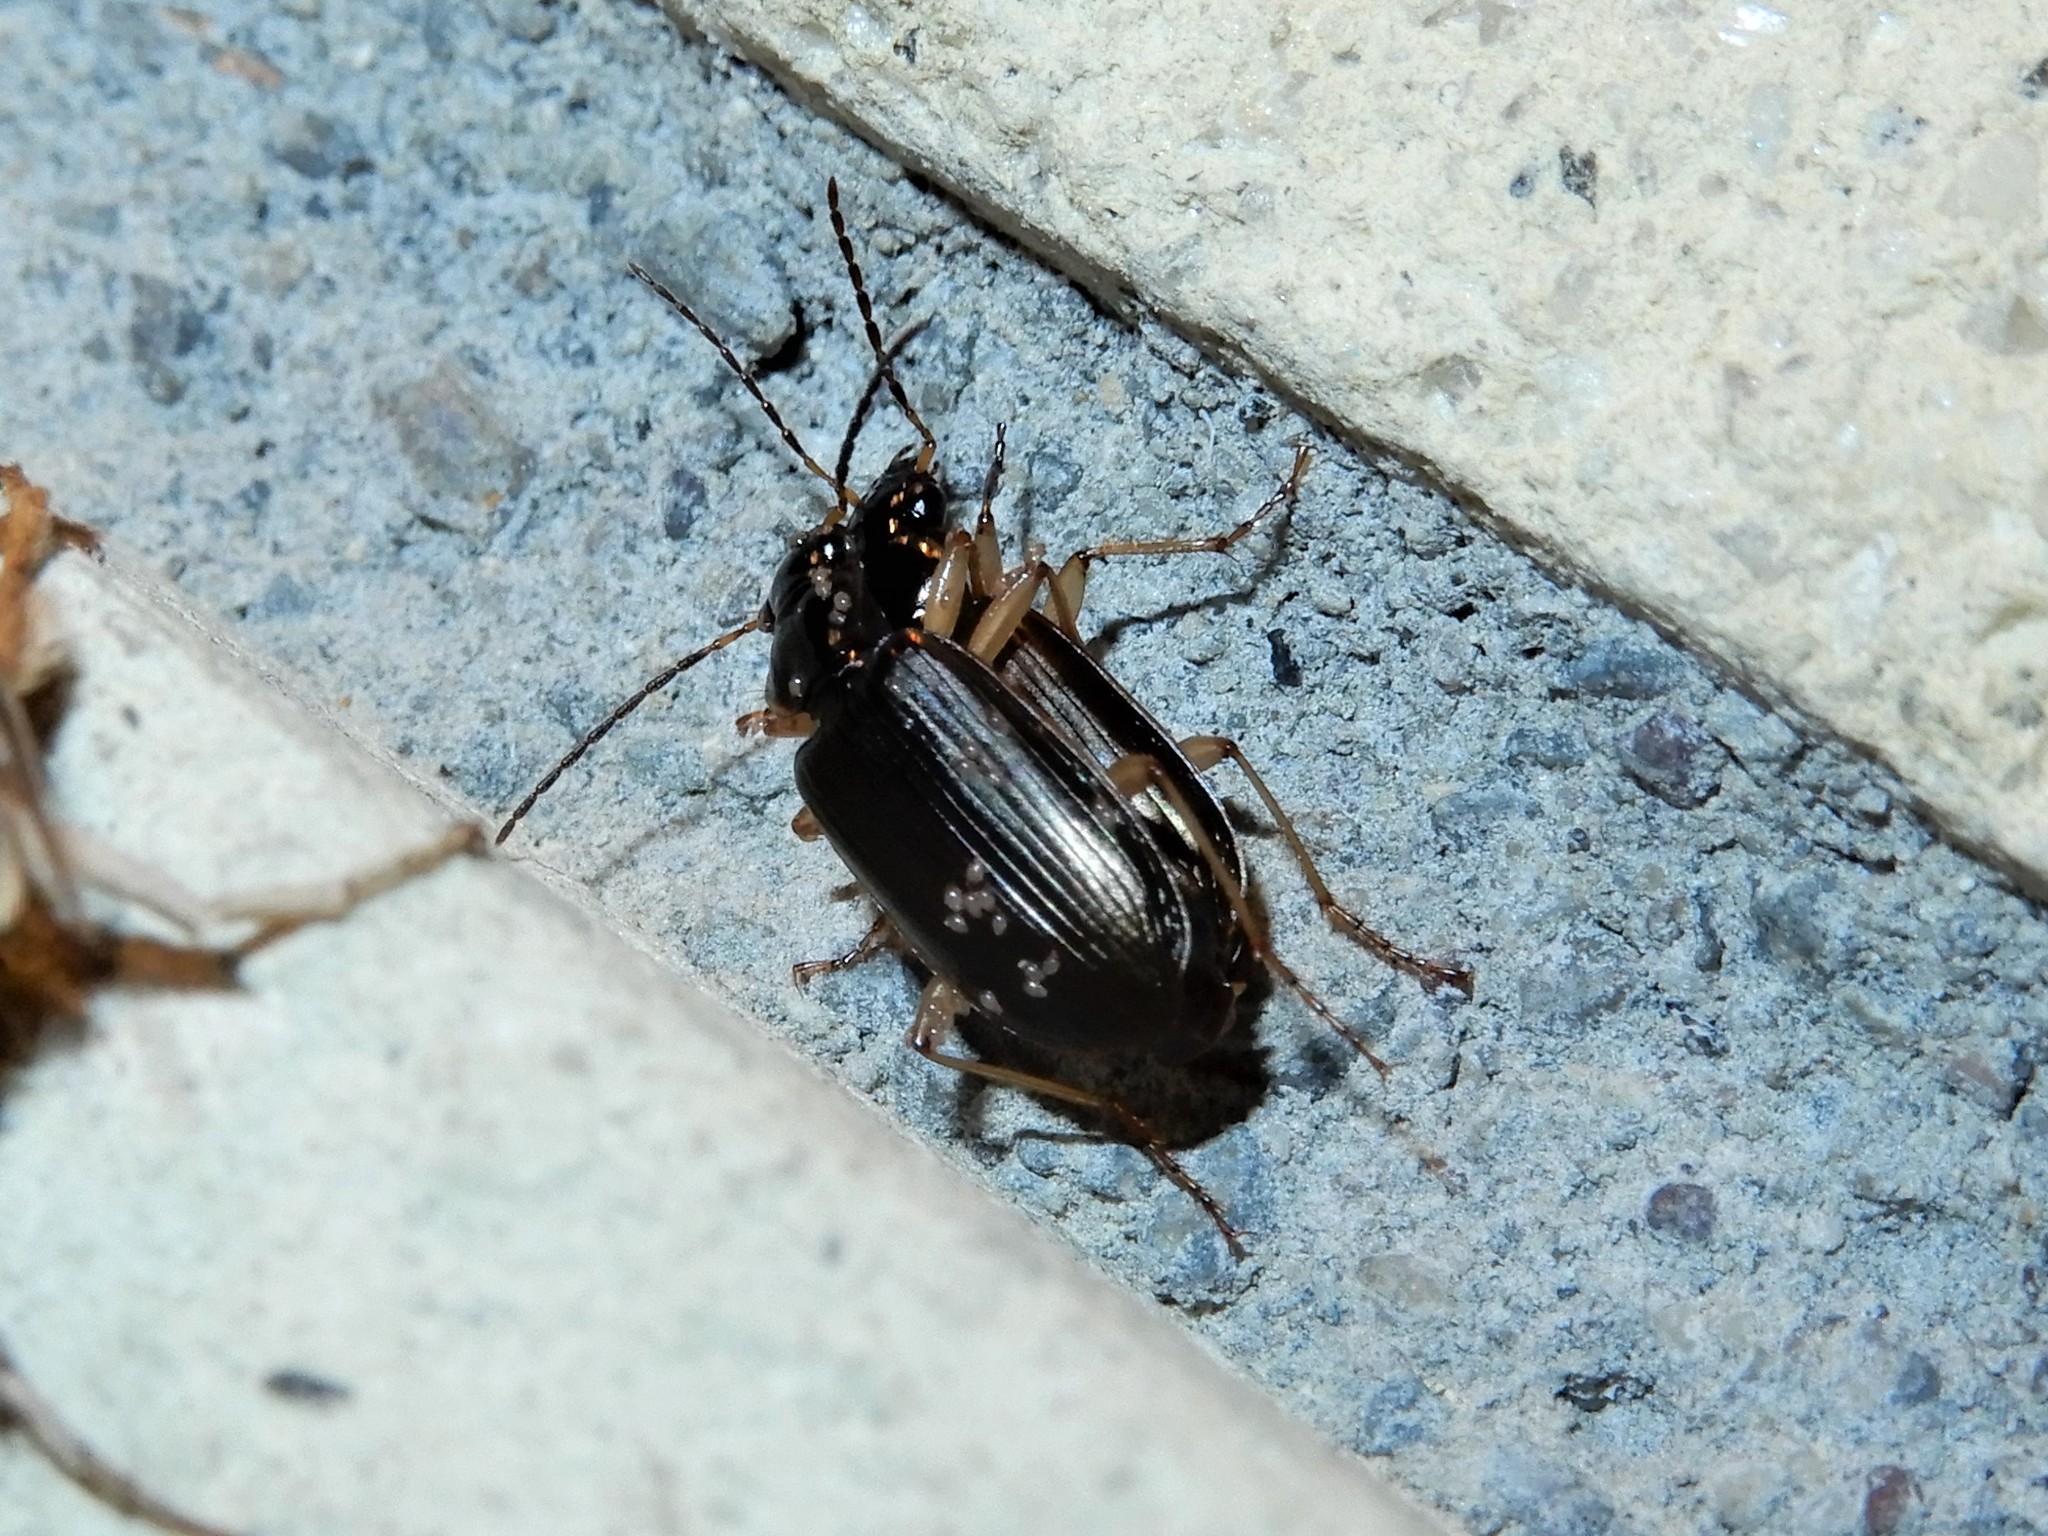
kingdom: Animalia
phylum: Arthropoda
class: Insecta
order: Coleoptera
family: Carabidae
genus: Notagonum
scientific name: Notagonum submetallicum
